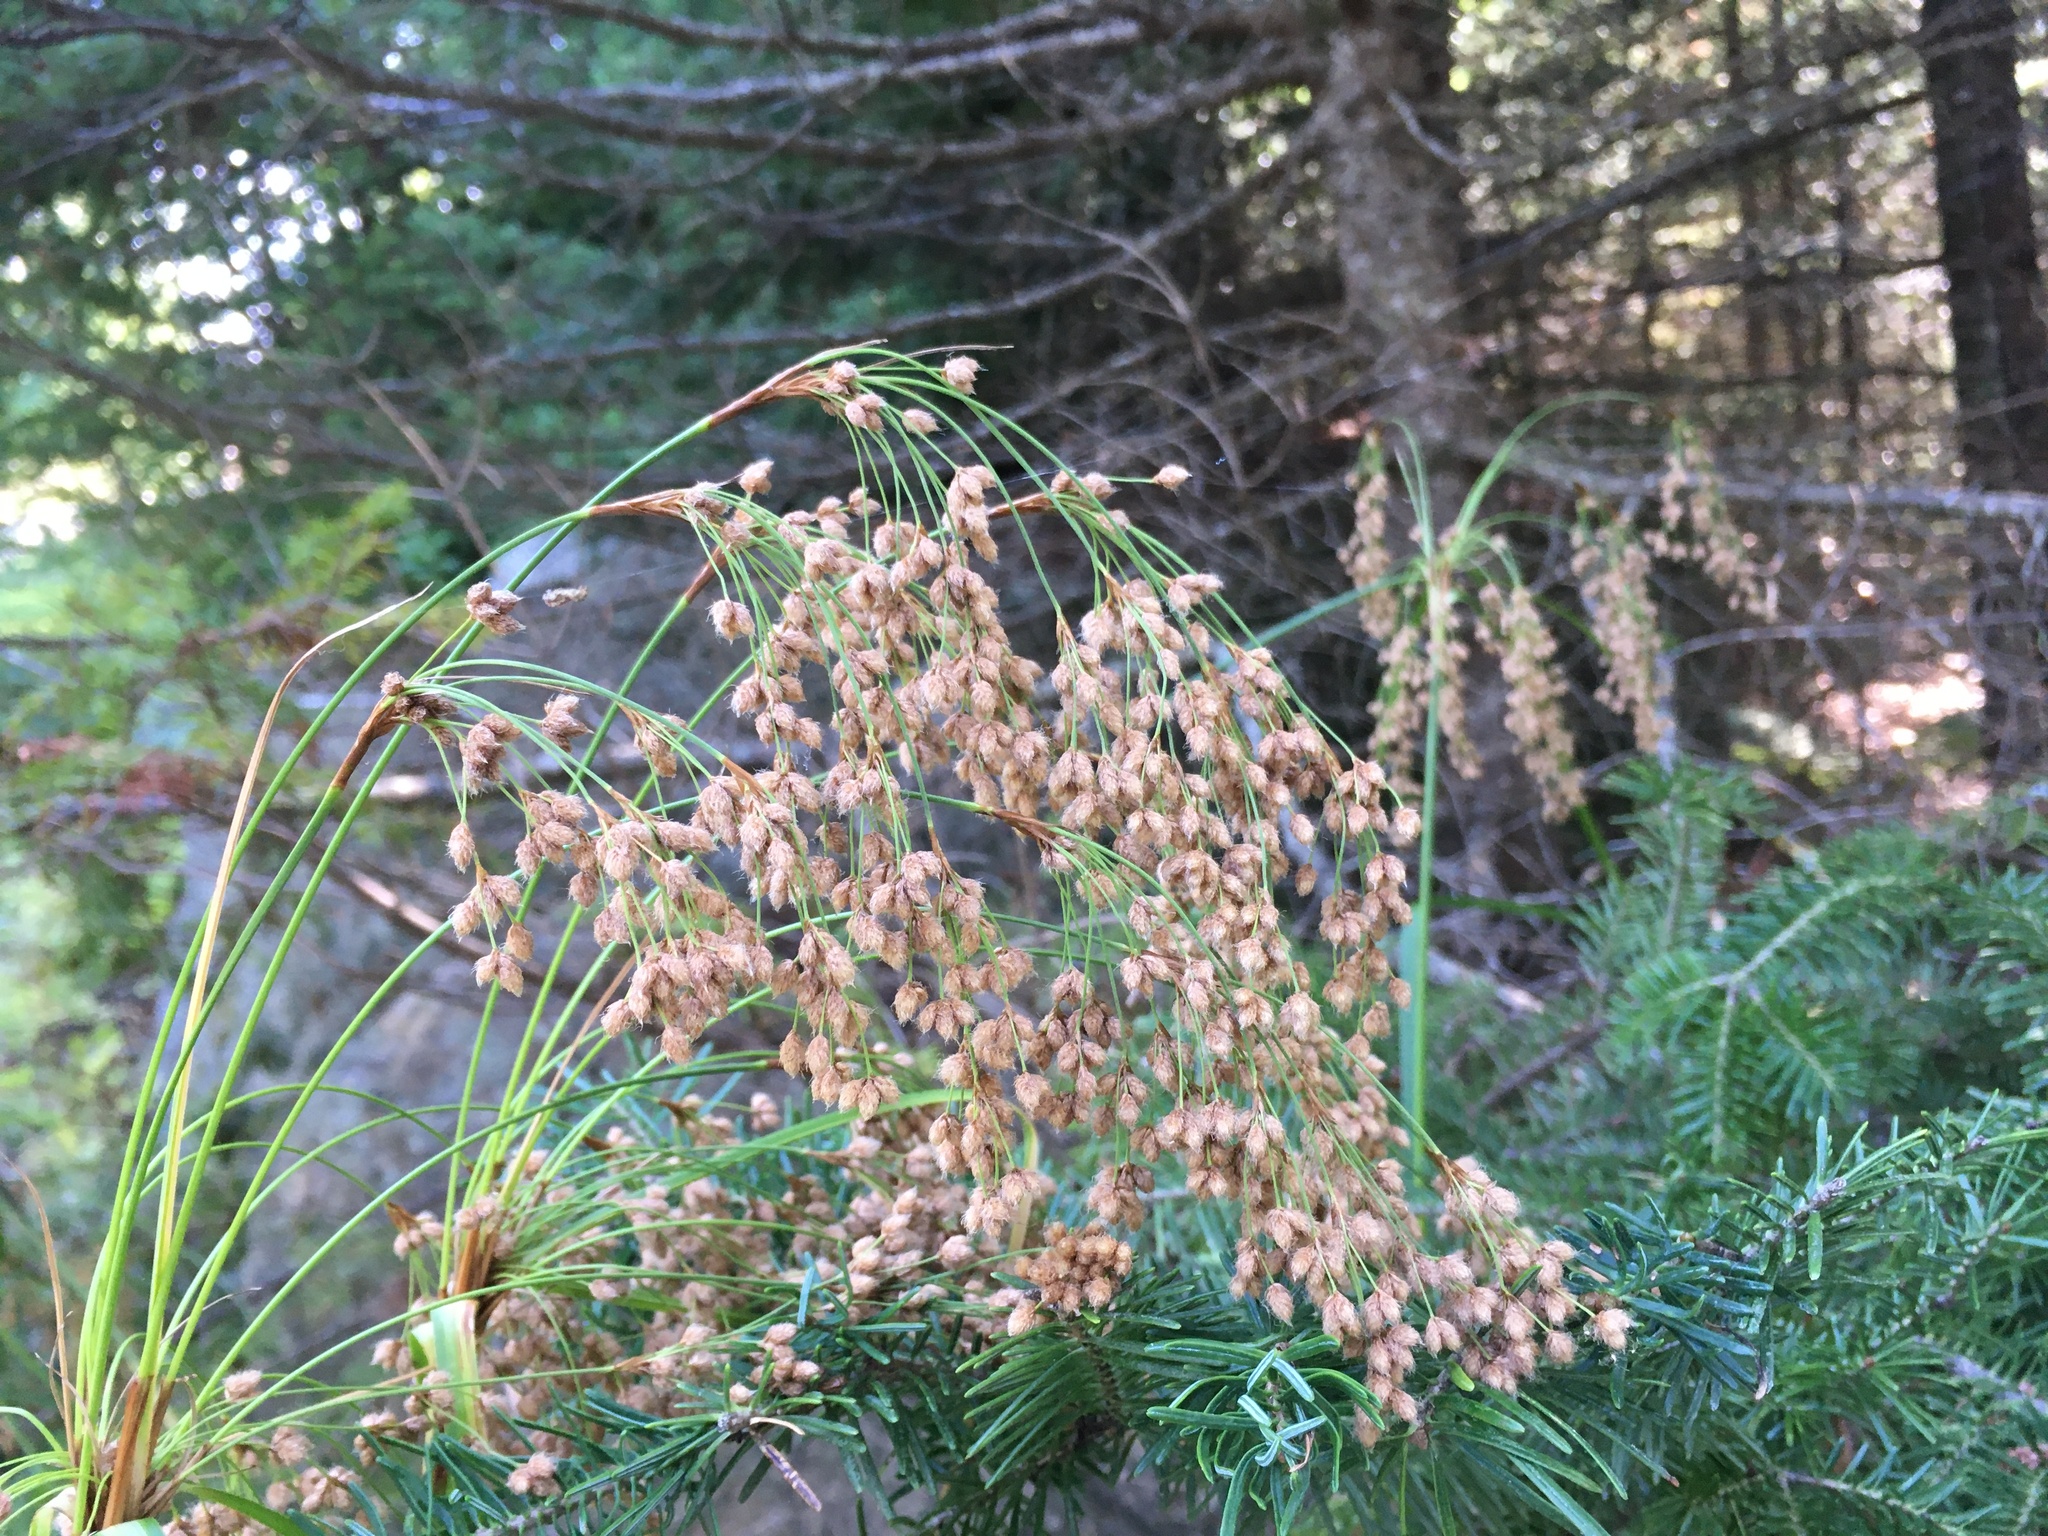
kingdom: Plantae
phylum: Tracheophyta
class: Liliopsida
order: Poales
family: Cyperaceae
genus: Scirpus
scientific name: Scirpus cyperinus
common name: Black-sheathed bulrush
